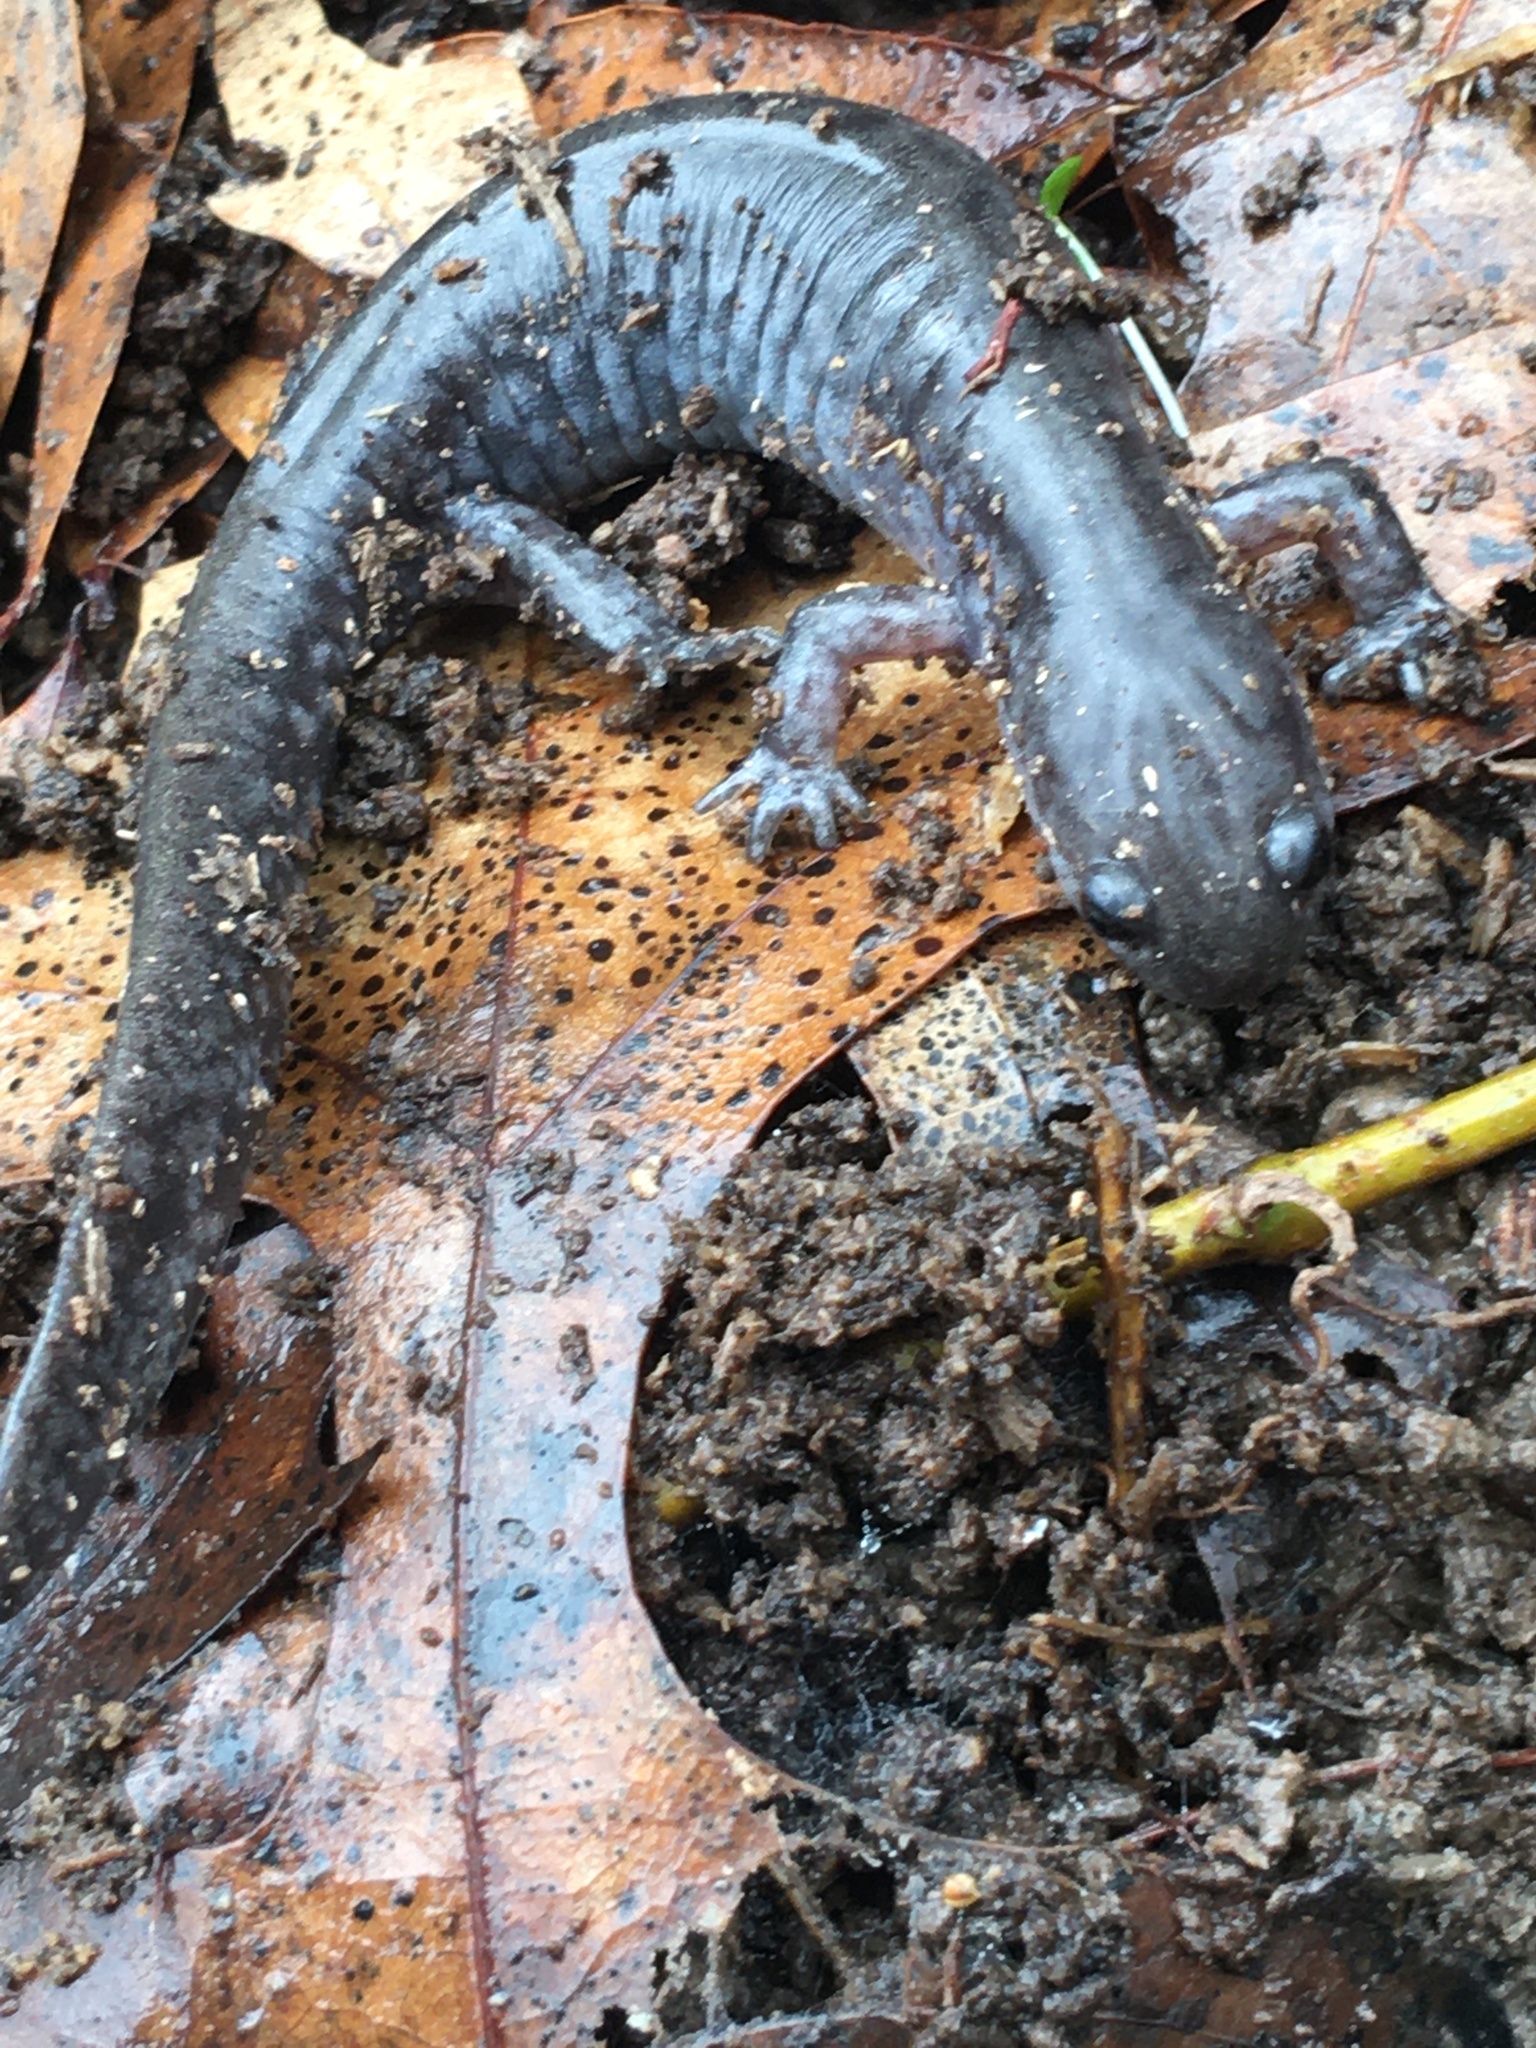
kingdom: Animalia
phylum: Chordata
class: Amphibia
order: Caudata
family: Ambystomatidae
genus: Ambystoma
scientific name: Ambystoma texanum
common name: Small-mouth salamander
